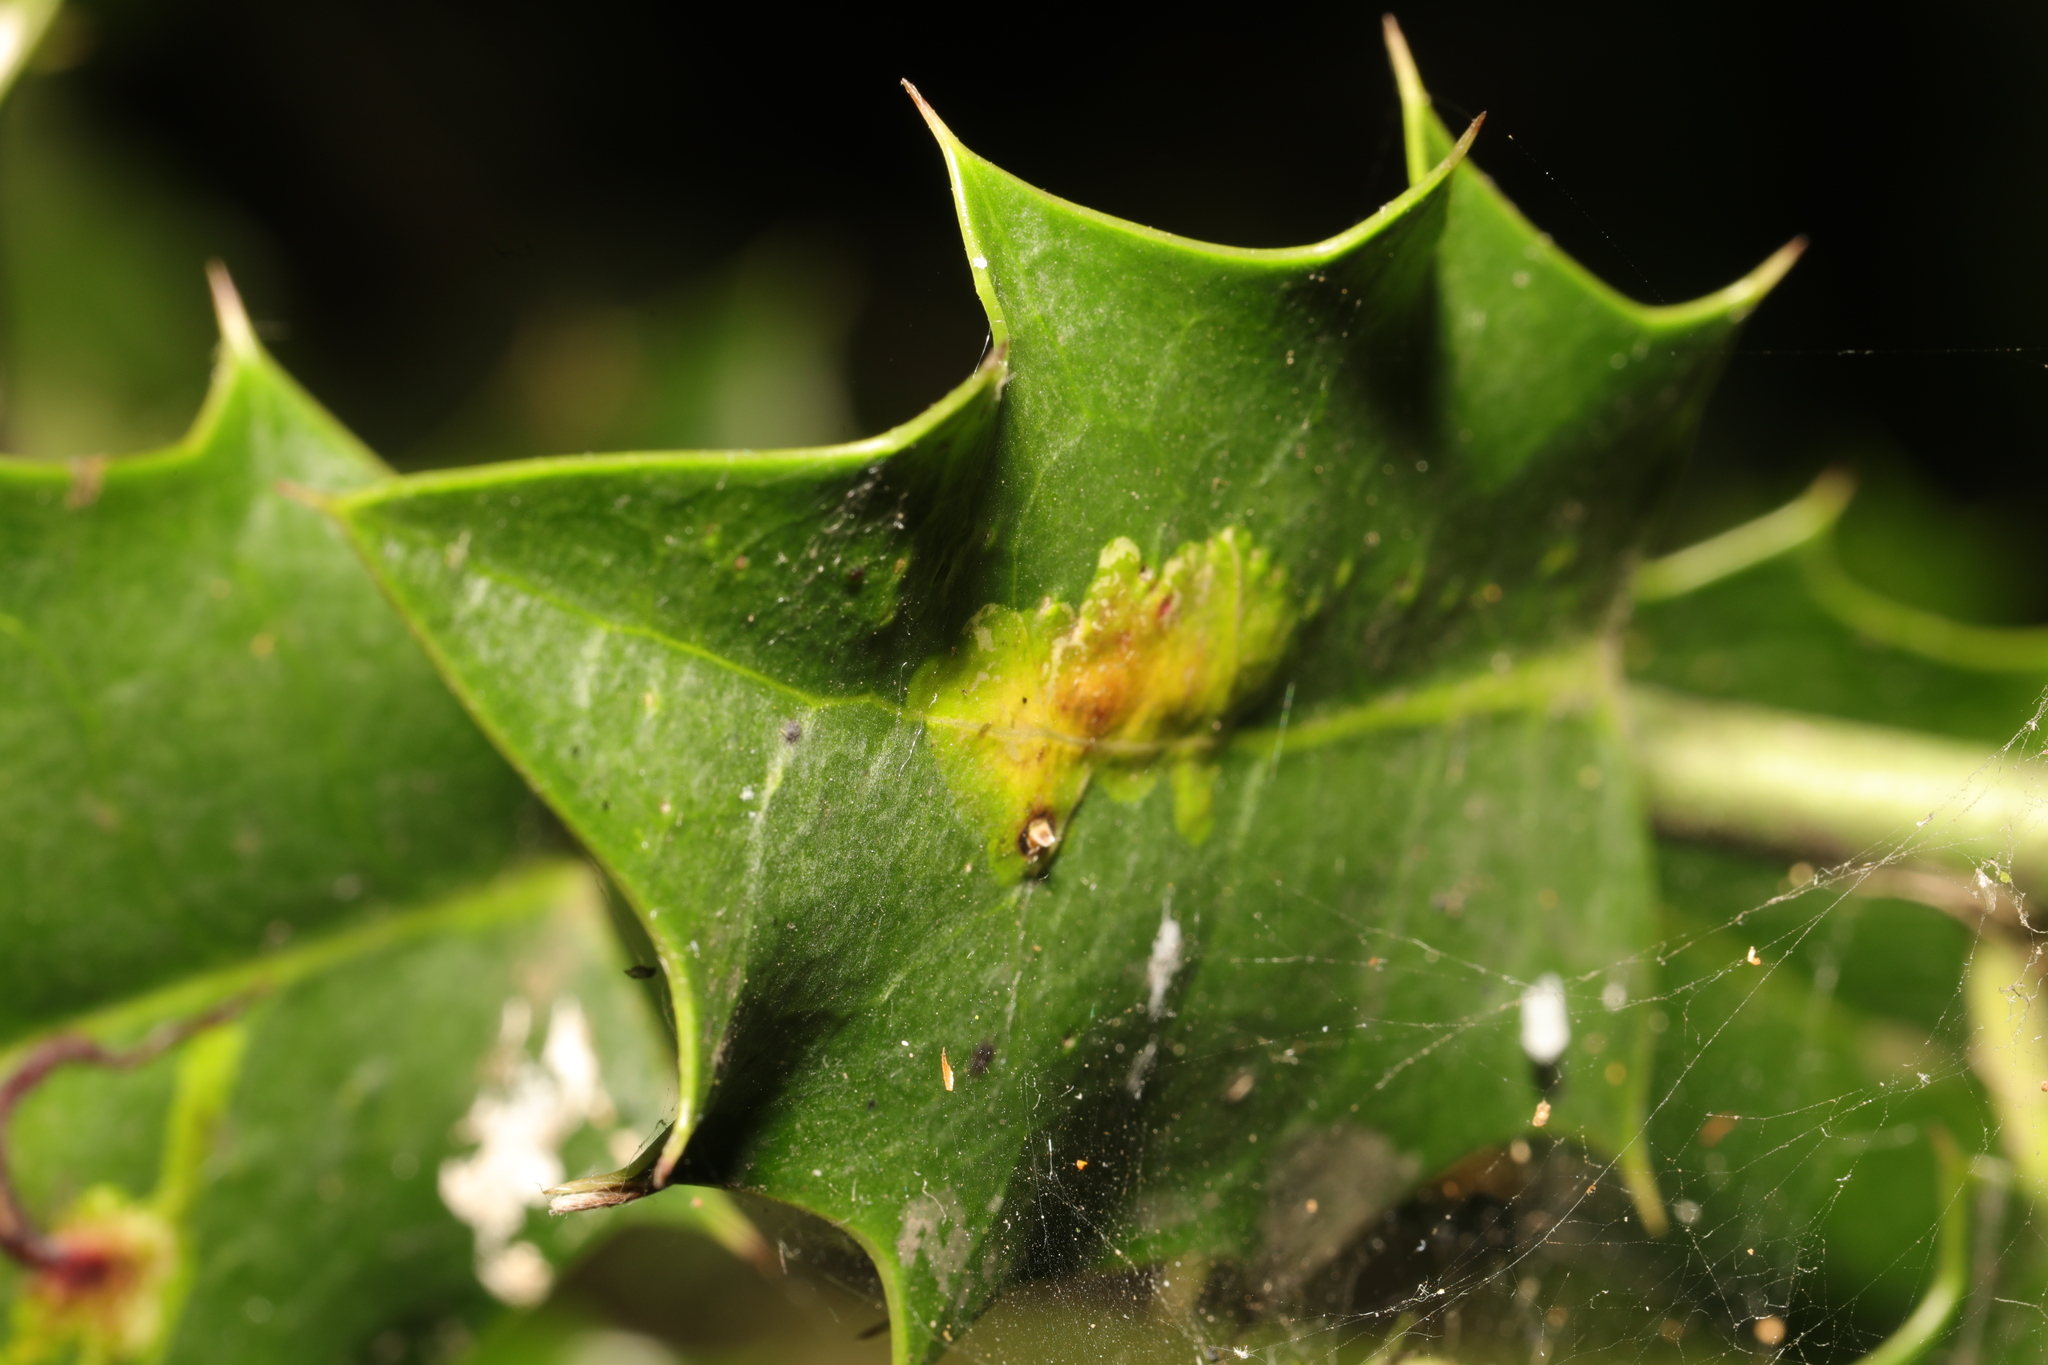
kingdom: Animalia
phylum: Arthropoda
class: Insecta
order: Diptera
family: Agromyzidae
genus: Phytomyza
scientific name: Phytomyza ilicis
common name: Holly leafminer
